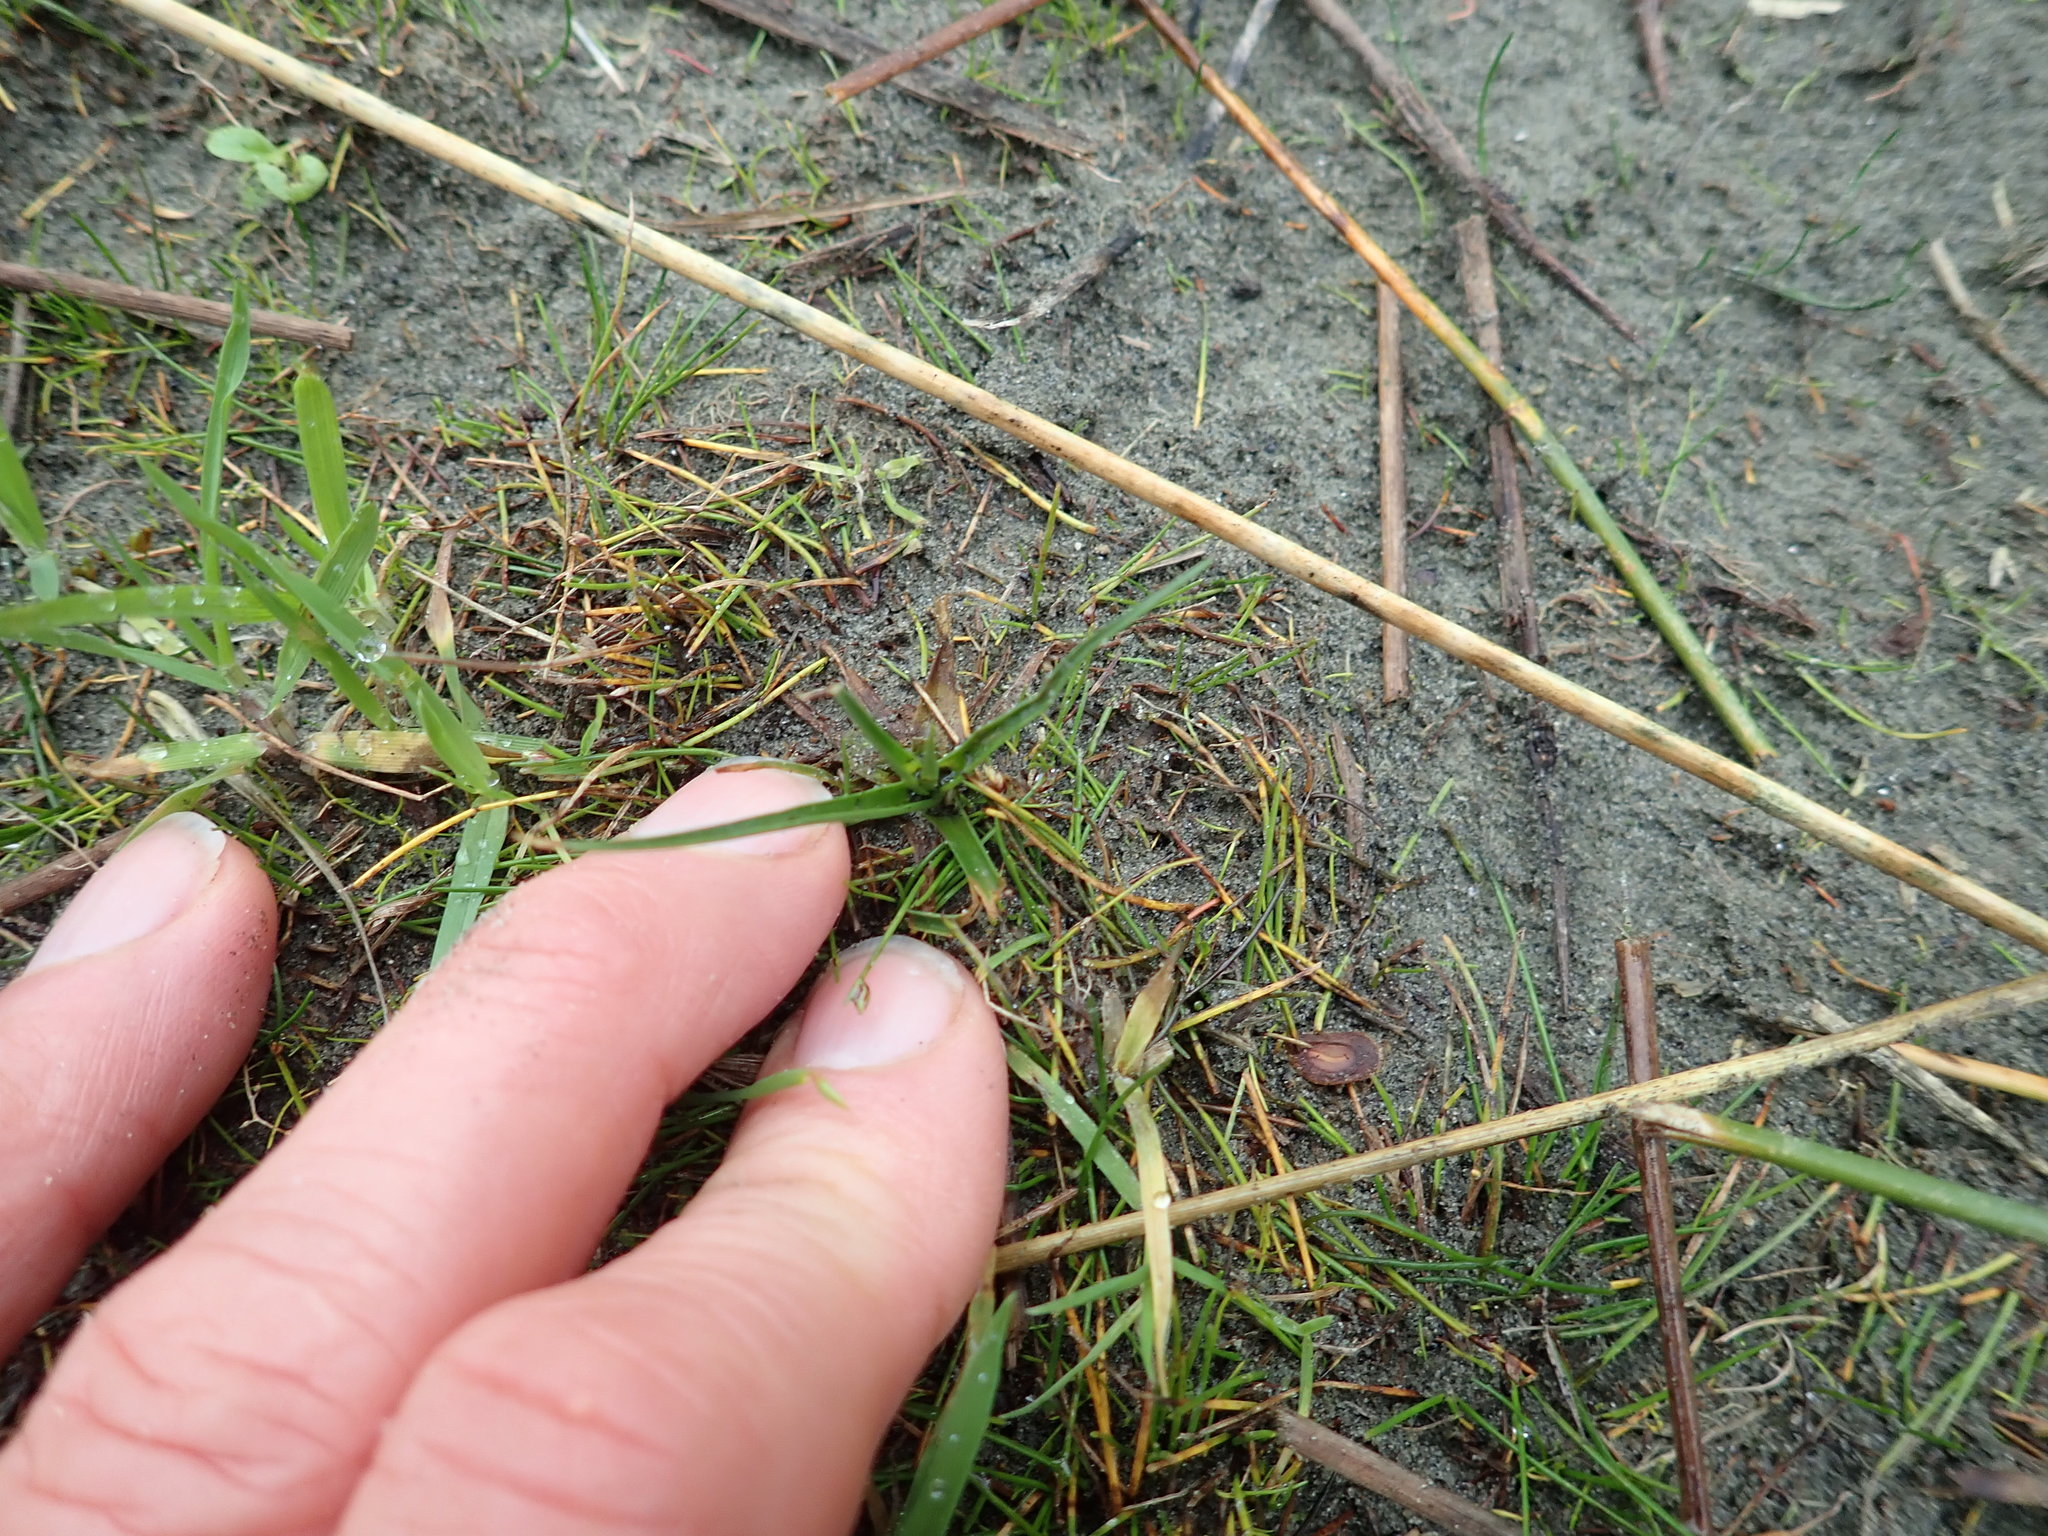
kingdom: Plantae
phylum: Tracheophyta
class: Liliopsida
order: Poales
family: Juncaceae
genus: Juncus
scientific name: Juncus caespiticius
